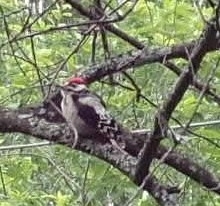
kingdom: Animalia
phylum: Chordata
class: Aves
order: Piciformes
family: Picidae
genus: Dendrocopos
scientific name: Dendrocopos major
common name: Great spotted woodpecker
